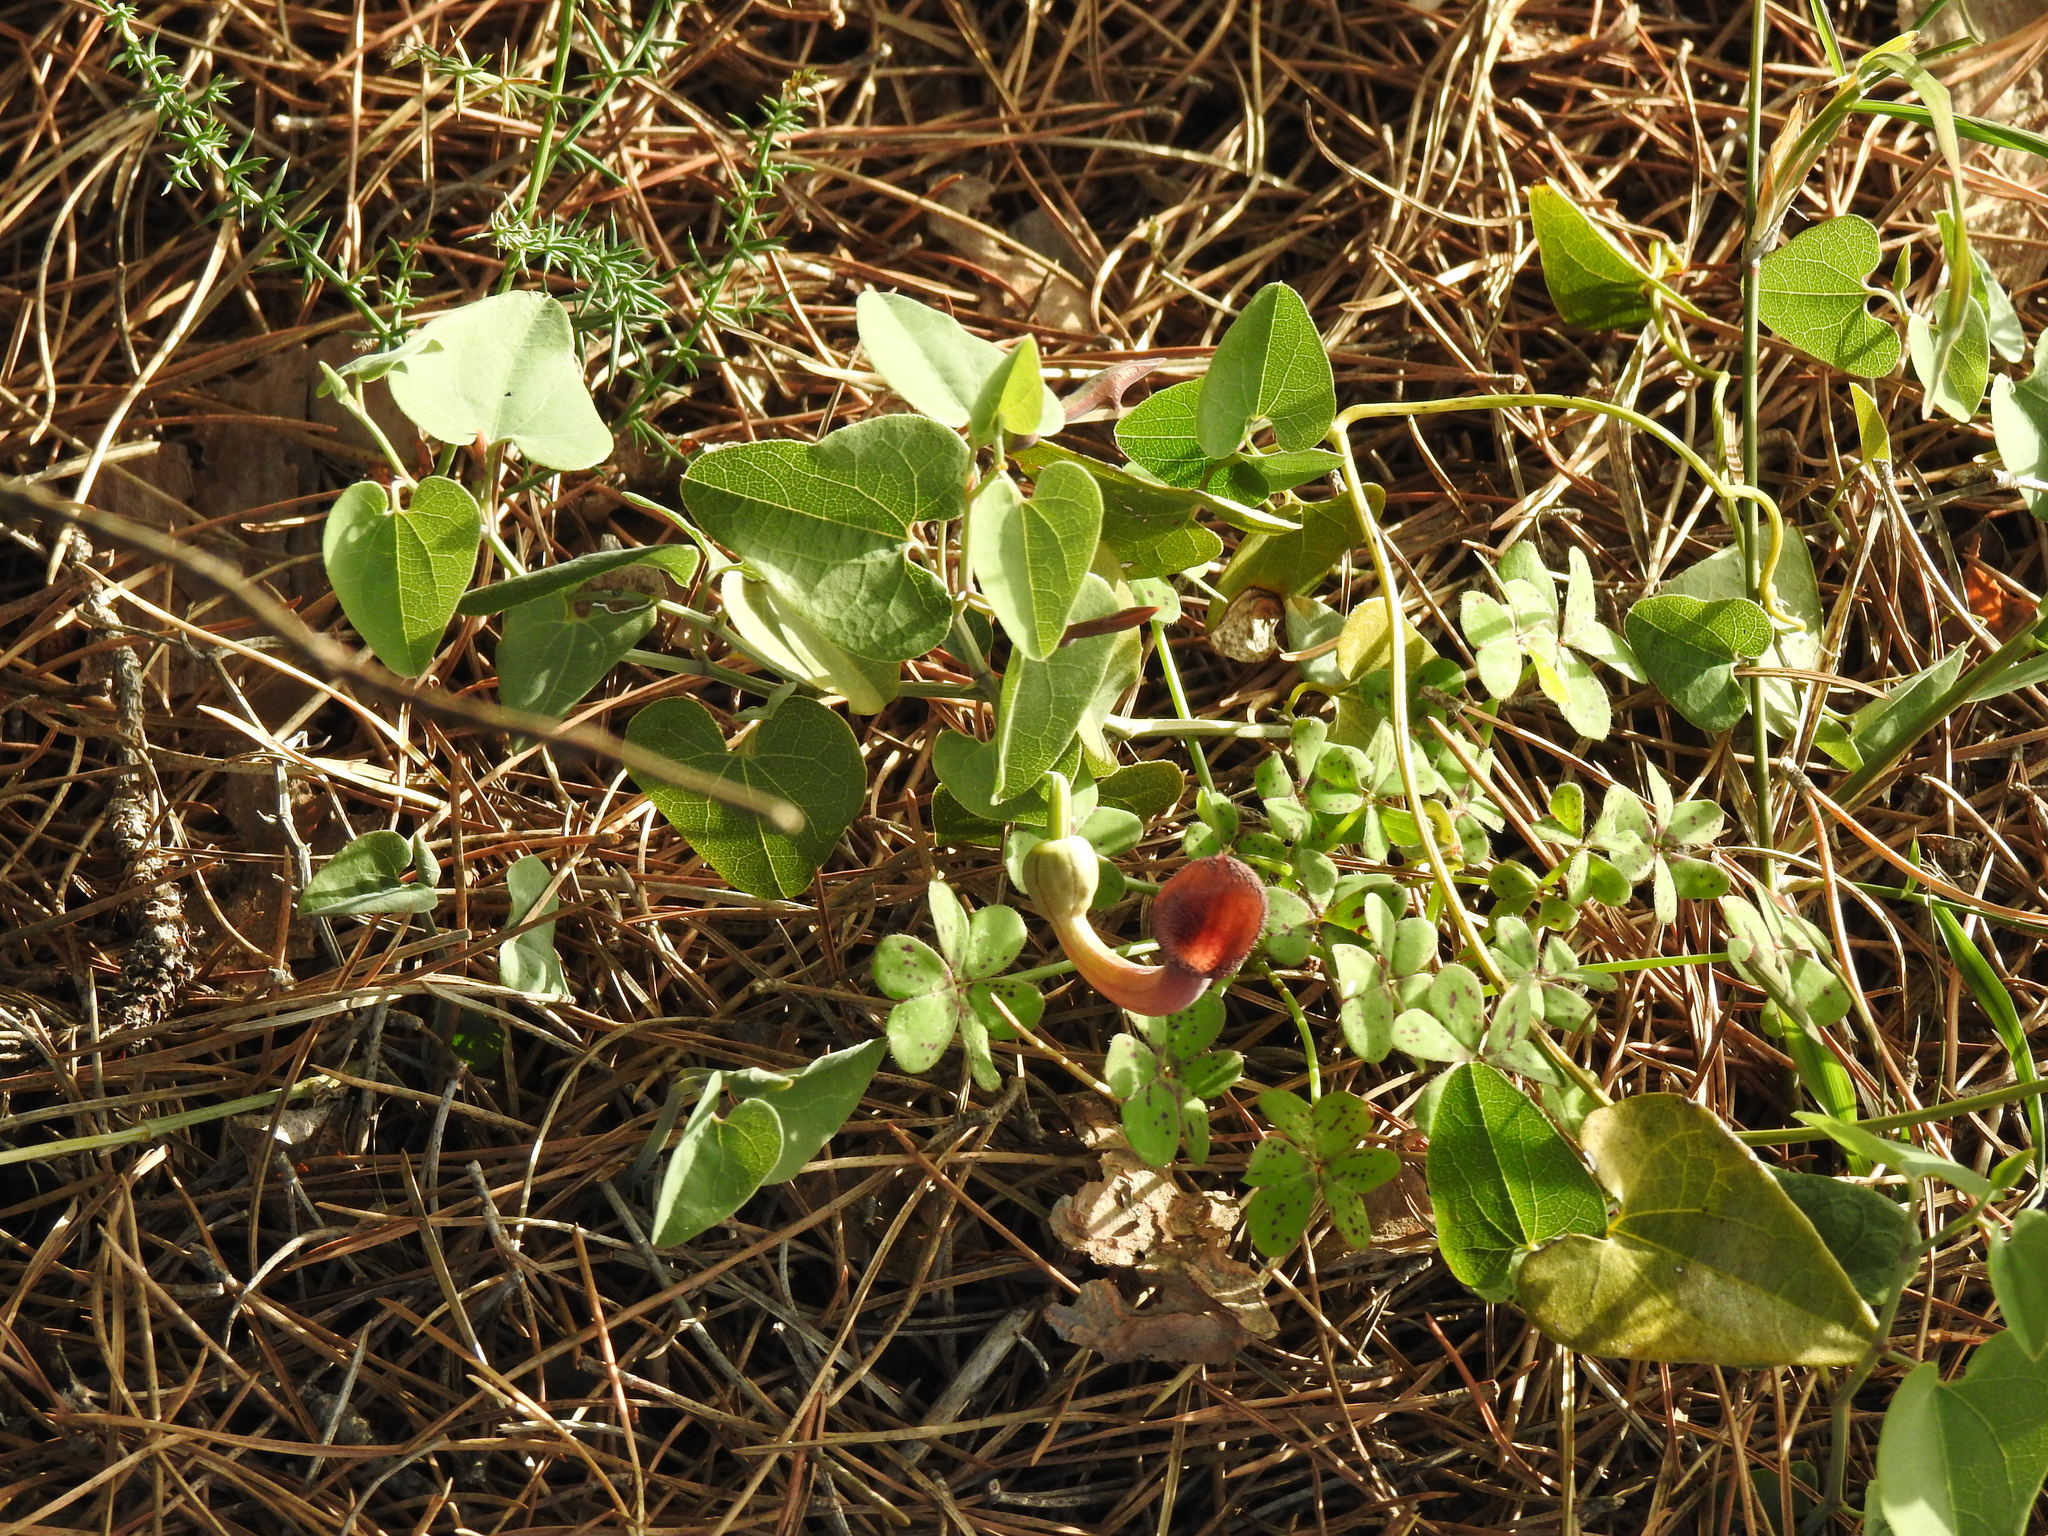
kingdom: Plantae
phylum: Tracheophyta
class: Magnoliopsida
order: Piperales
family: Aristolochiaceae
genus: Aristolochia
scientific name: Aristolochia baetica
